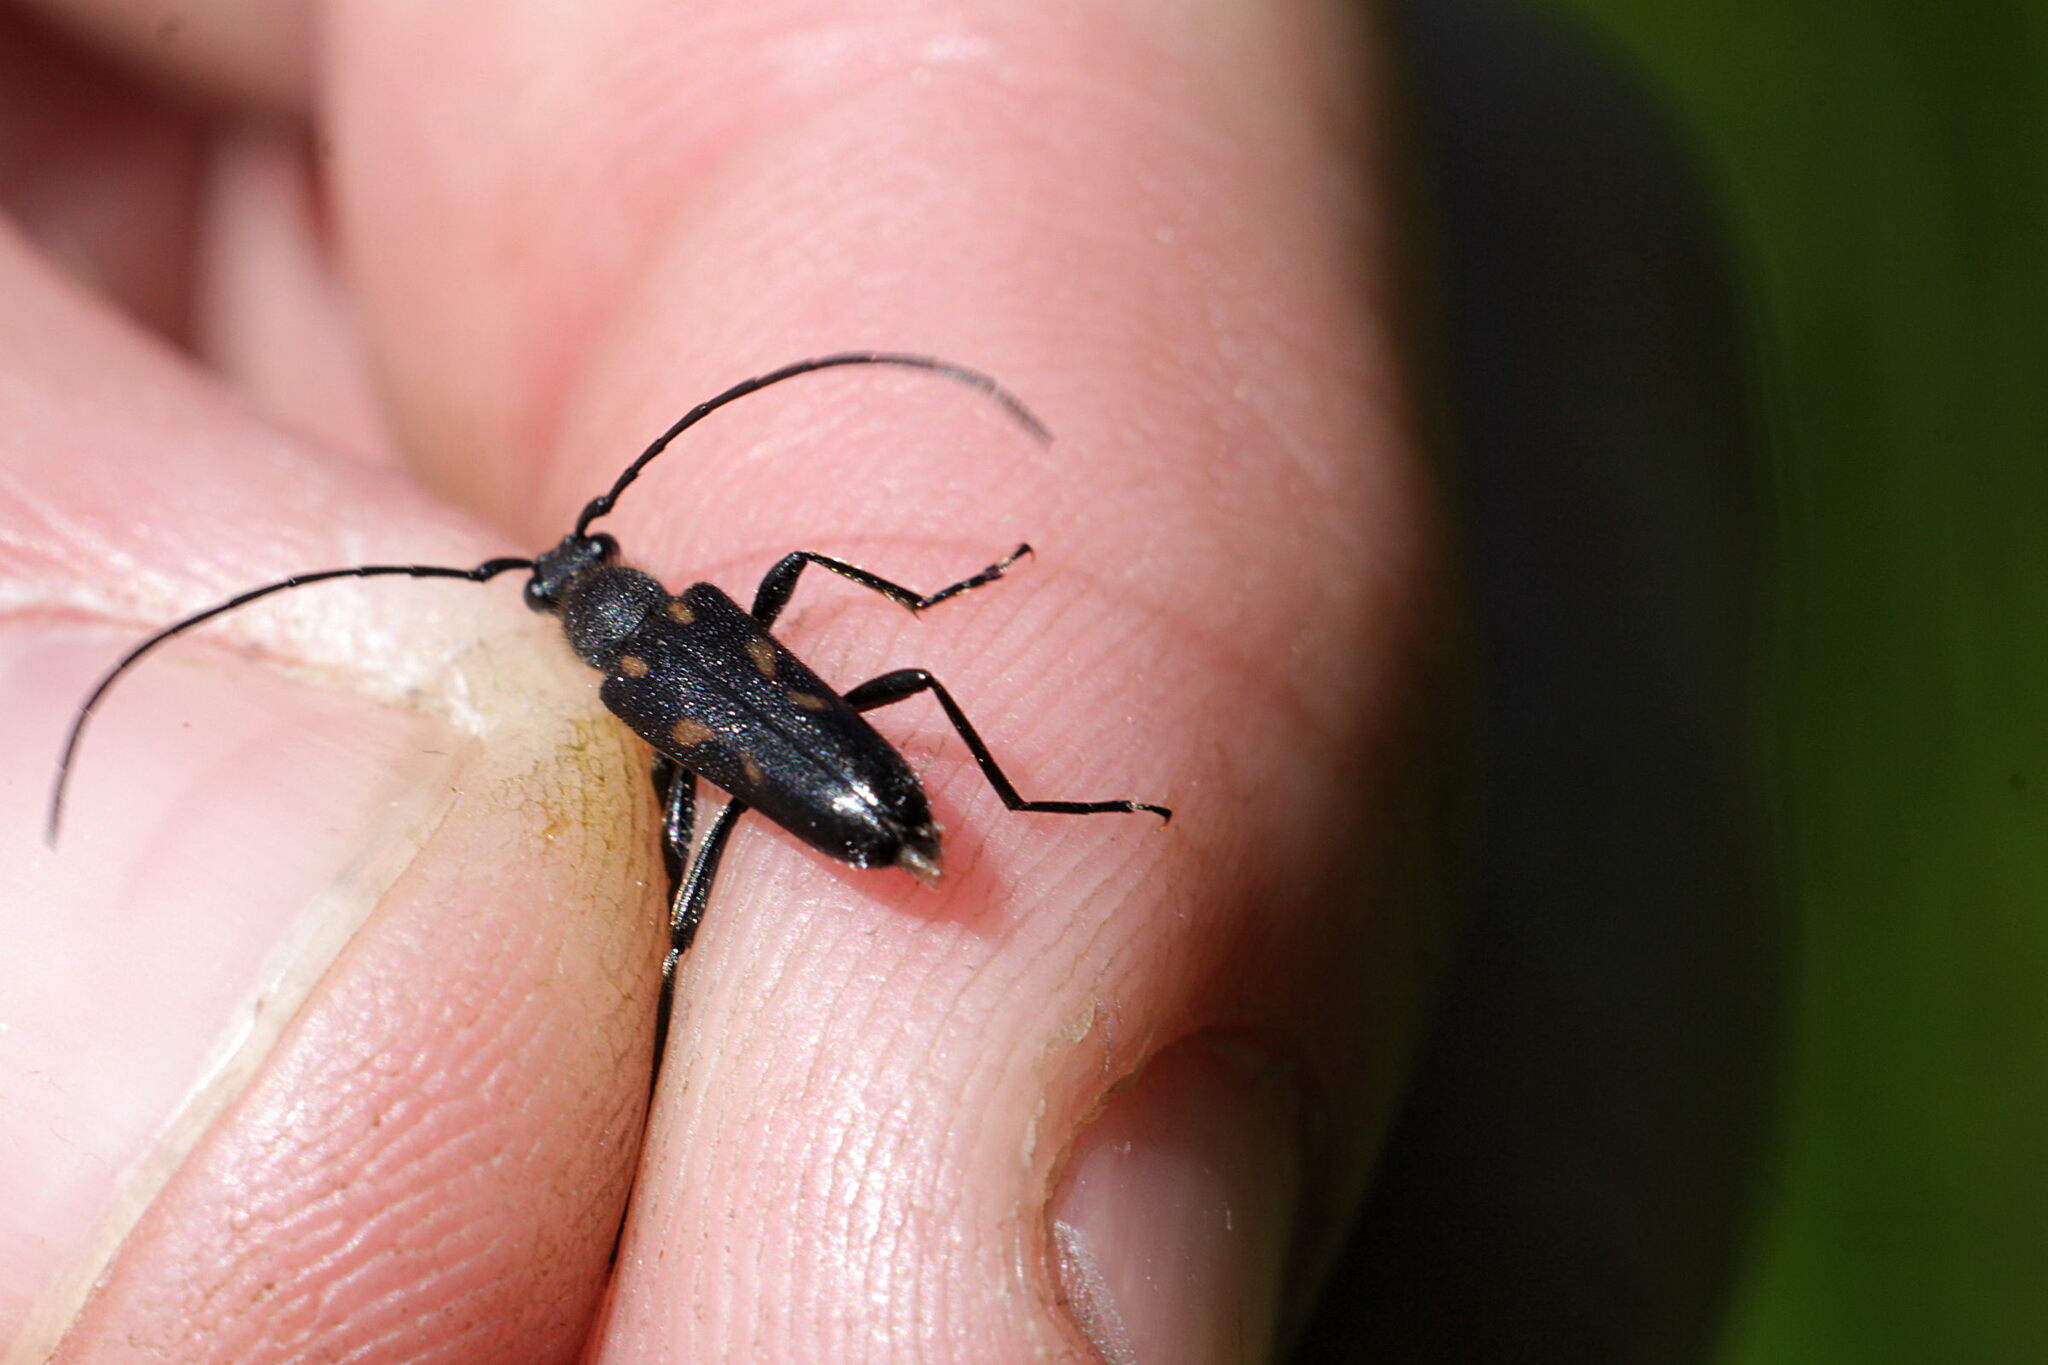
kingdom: Animalia
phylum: Arthropoda
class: Insecta
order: Coleoptera
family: Cerambycidae
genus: Anoplodera
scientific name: Anoplodera sexguttata
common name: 6 spotted longhorn
